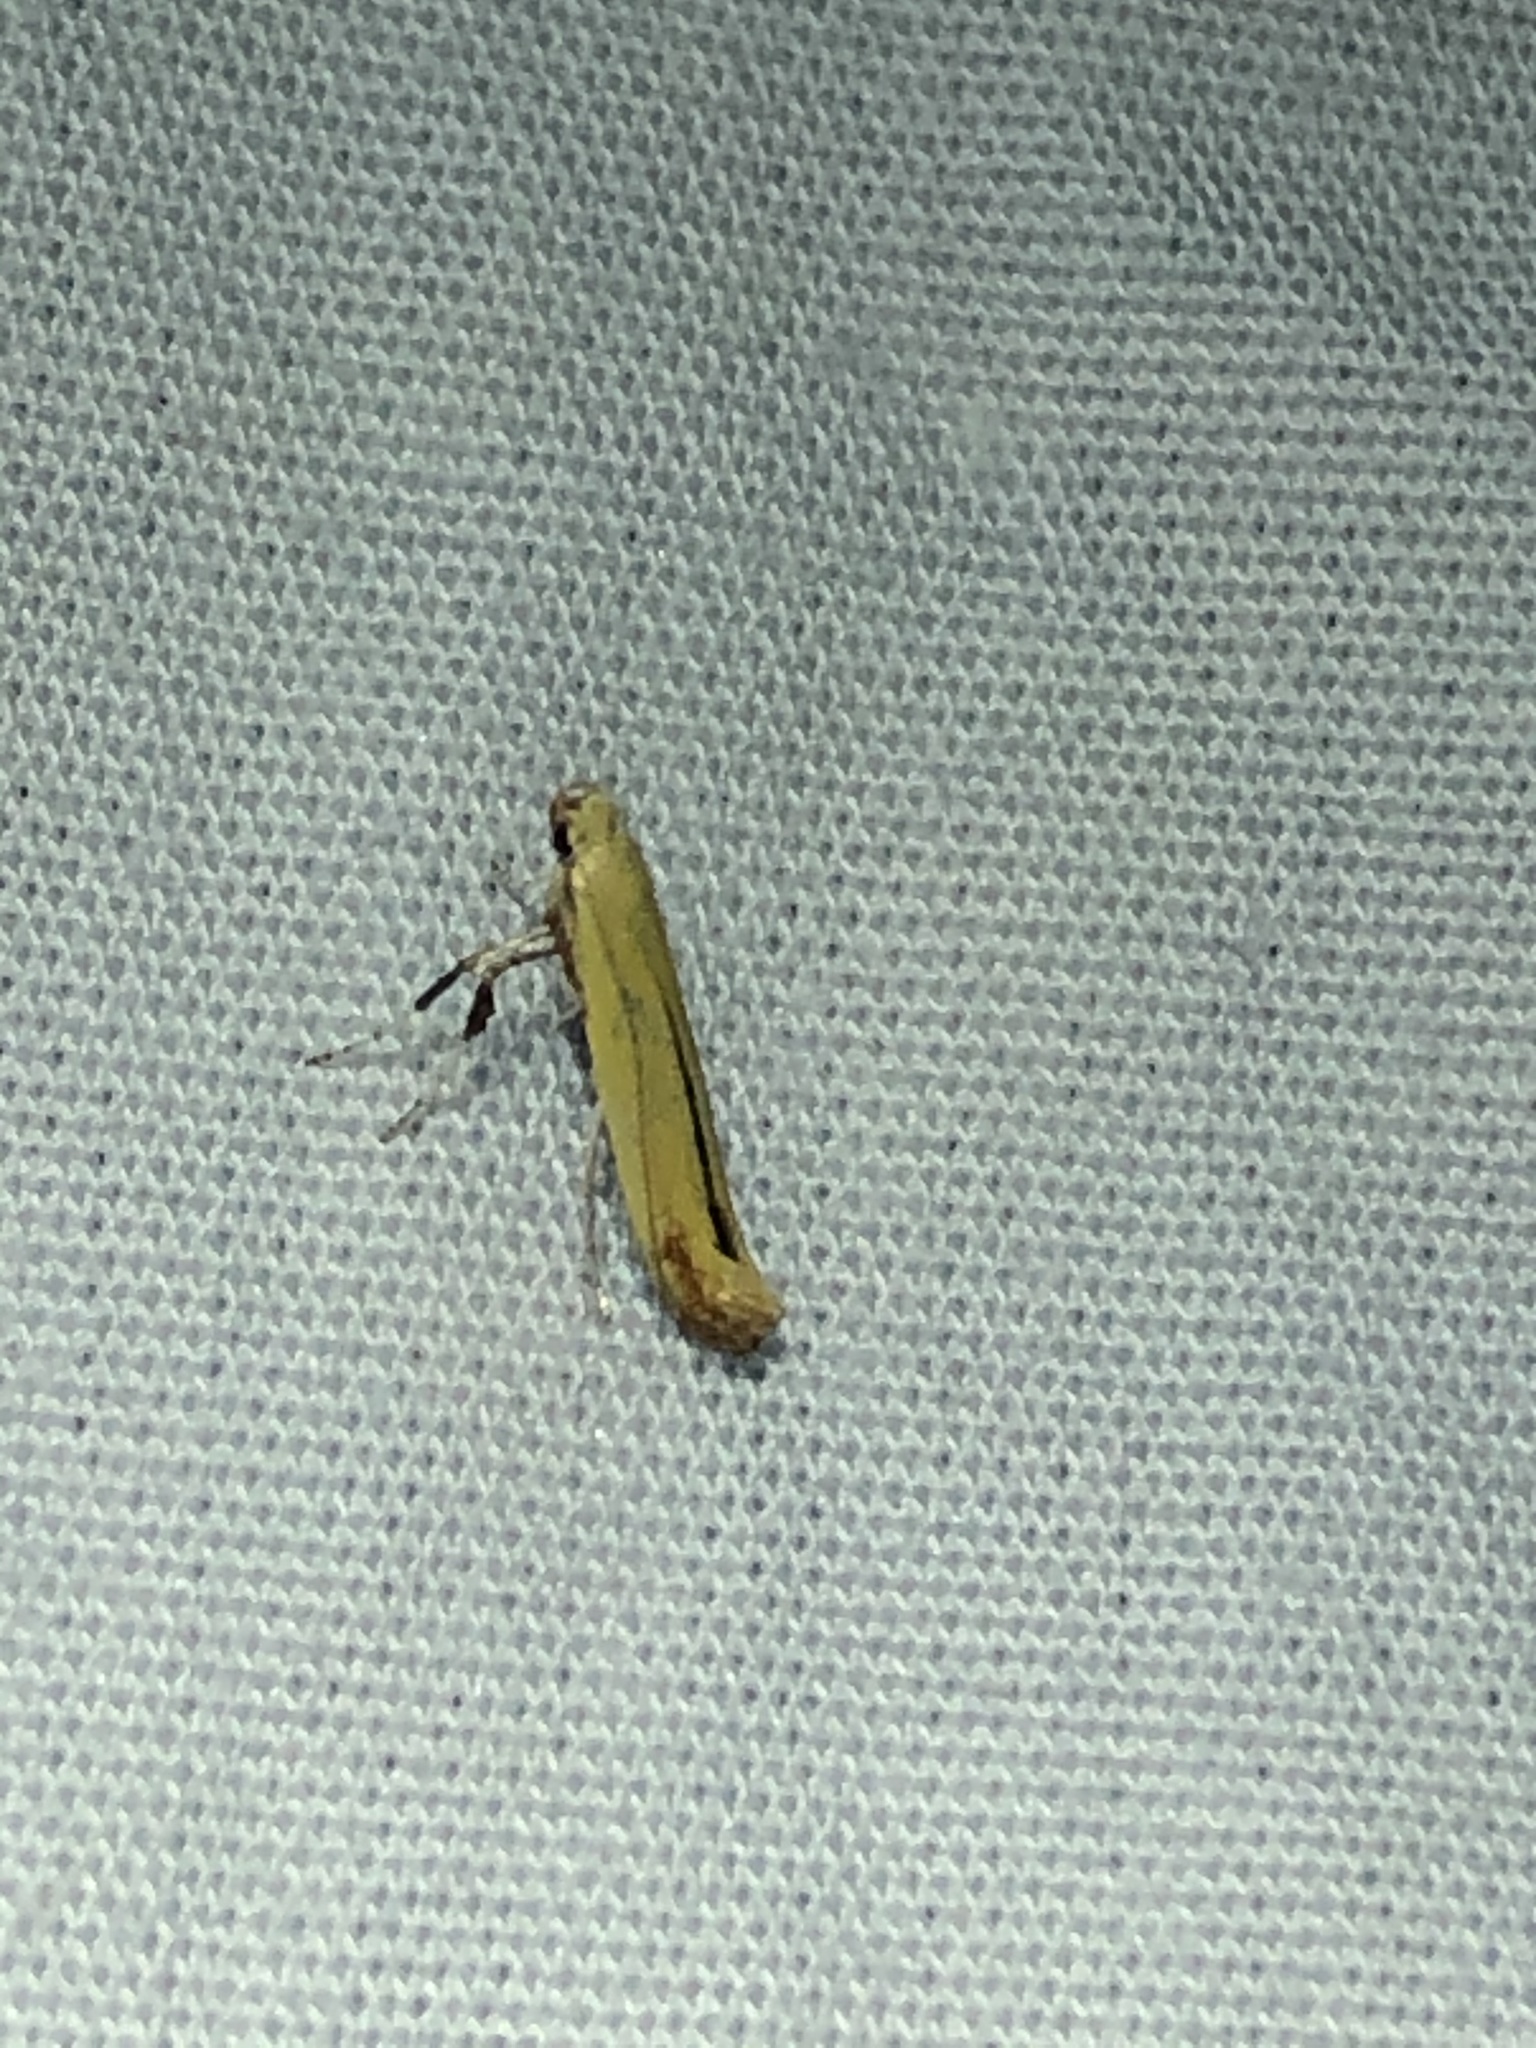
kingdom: Animalia
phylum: Arthropoda
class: Insecta
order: Lepidoptera
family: Gracillariidae
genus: Caloptilia
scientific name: Caloptilia nondeterminata
